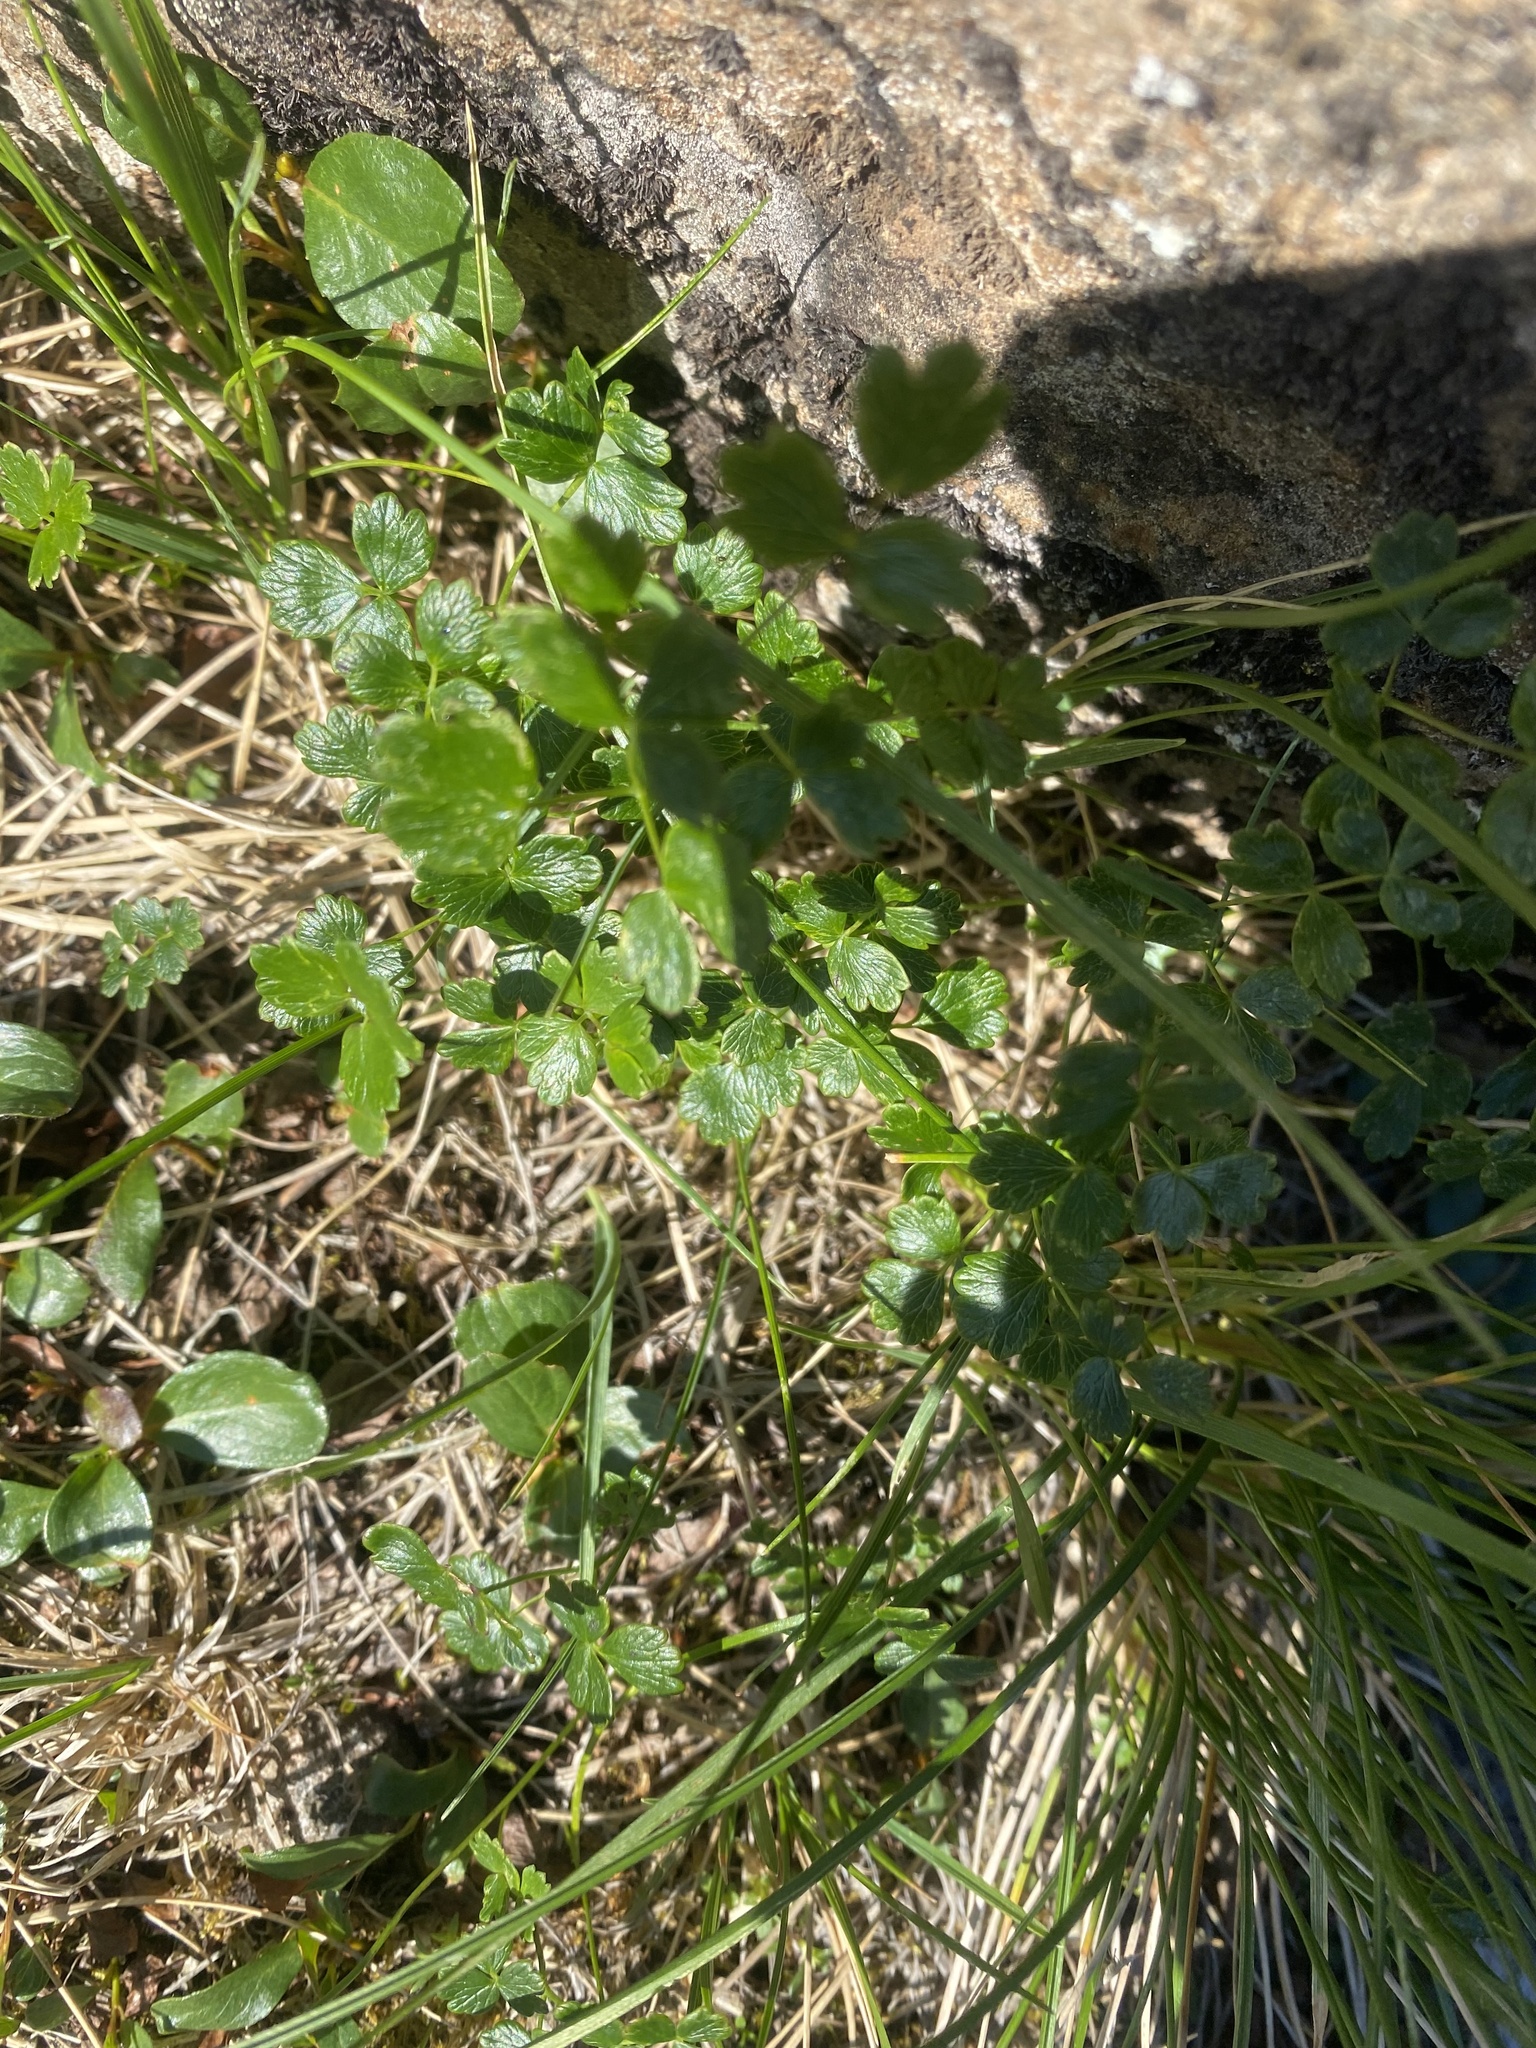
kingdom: Plantae
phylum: Tracheophyta
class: Magnoliopsida
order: Ranunculales
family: Ranunculaceae
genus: Thalictrum
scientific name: Thalictrum alpinum
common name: Alpine meadow-rue
